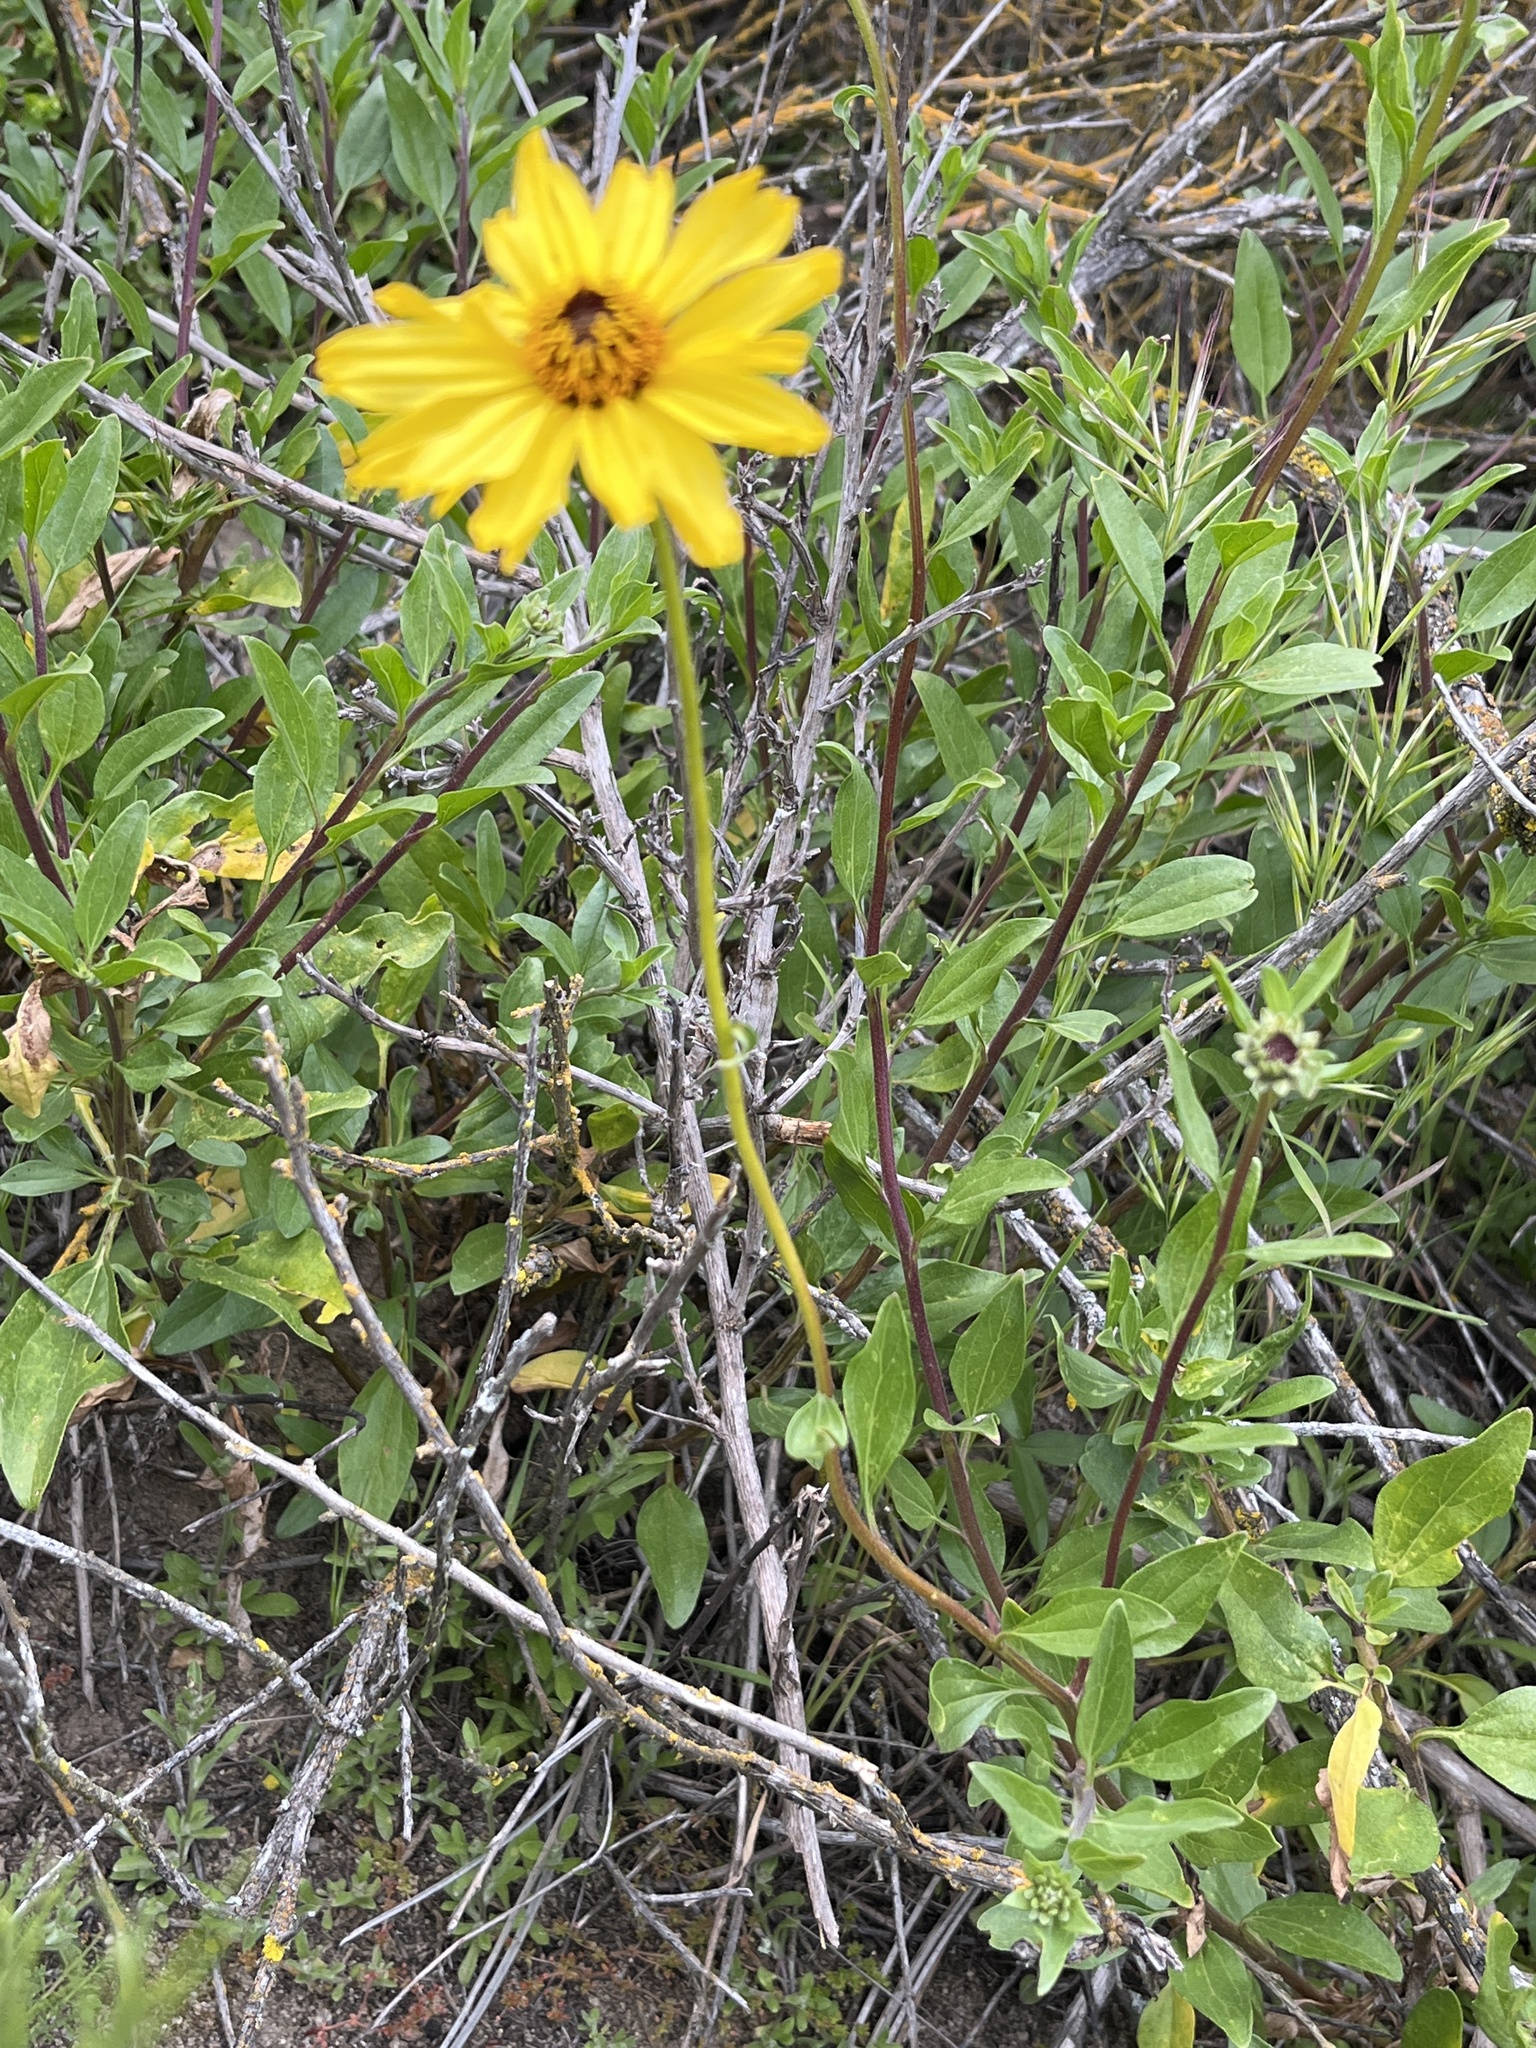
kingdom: Plantae
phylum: Tracheophyta
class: Magnoliopsida
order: Asterales
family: Asteraceae
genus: Encelia
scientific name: Encelia californica
